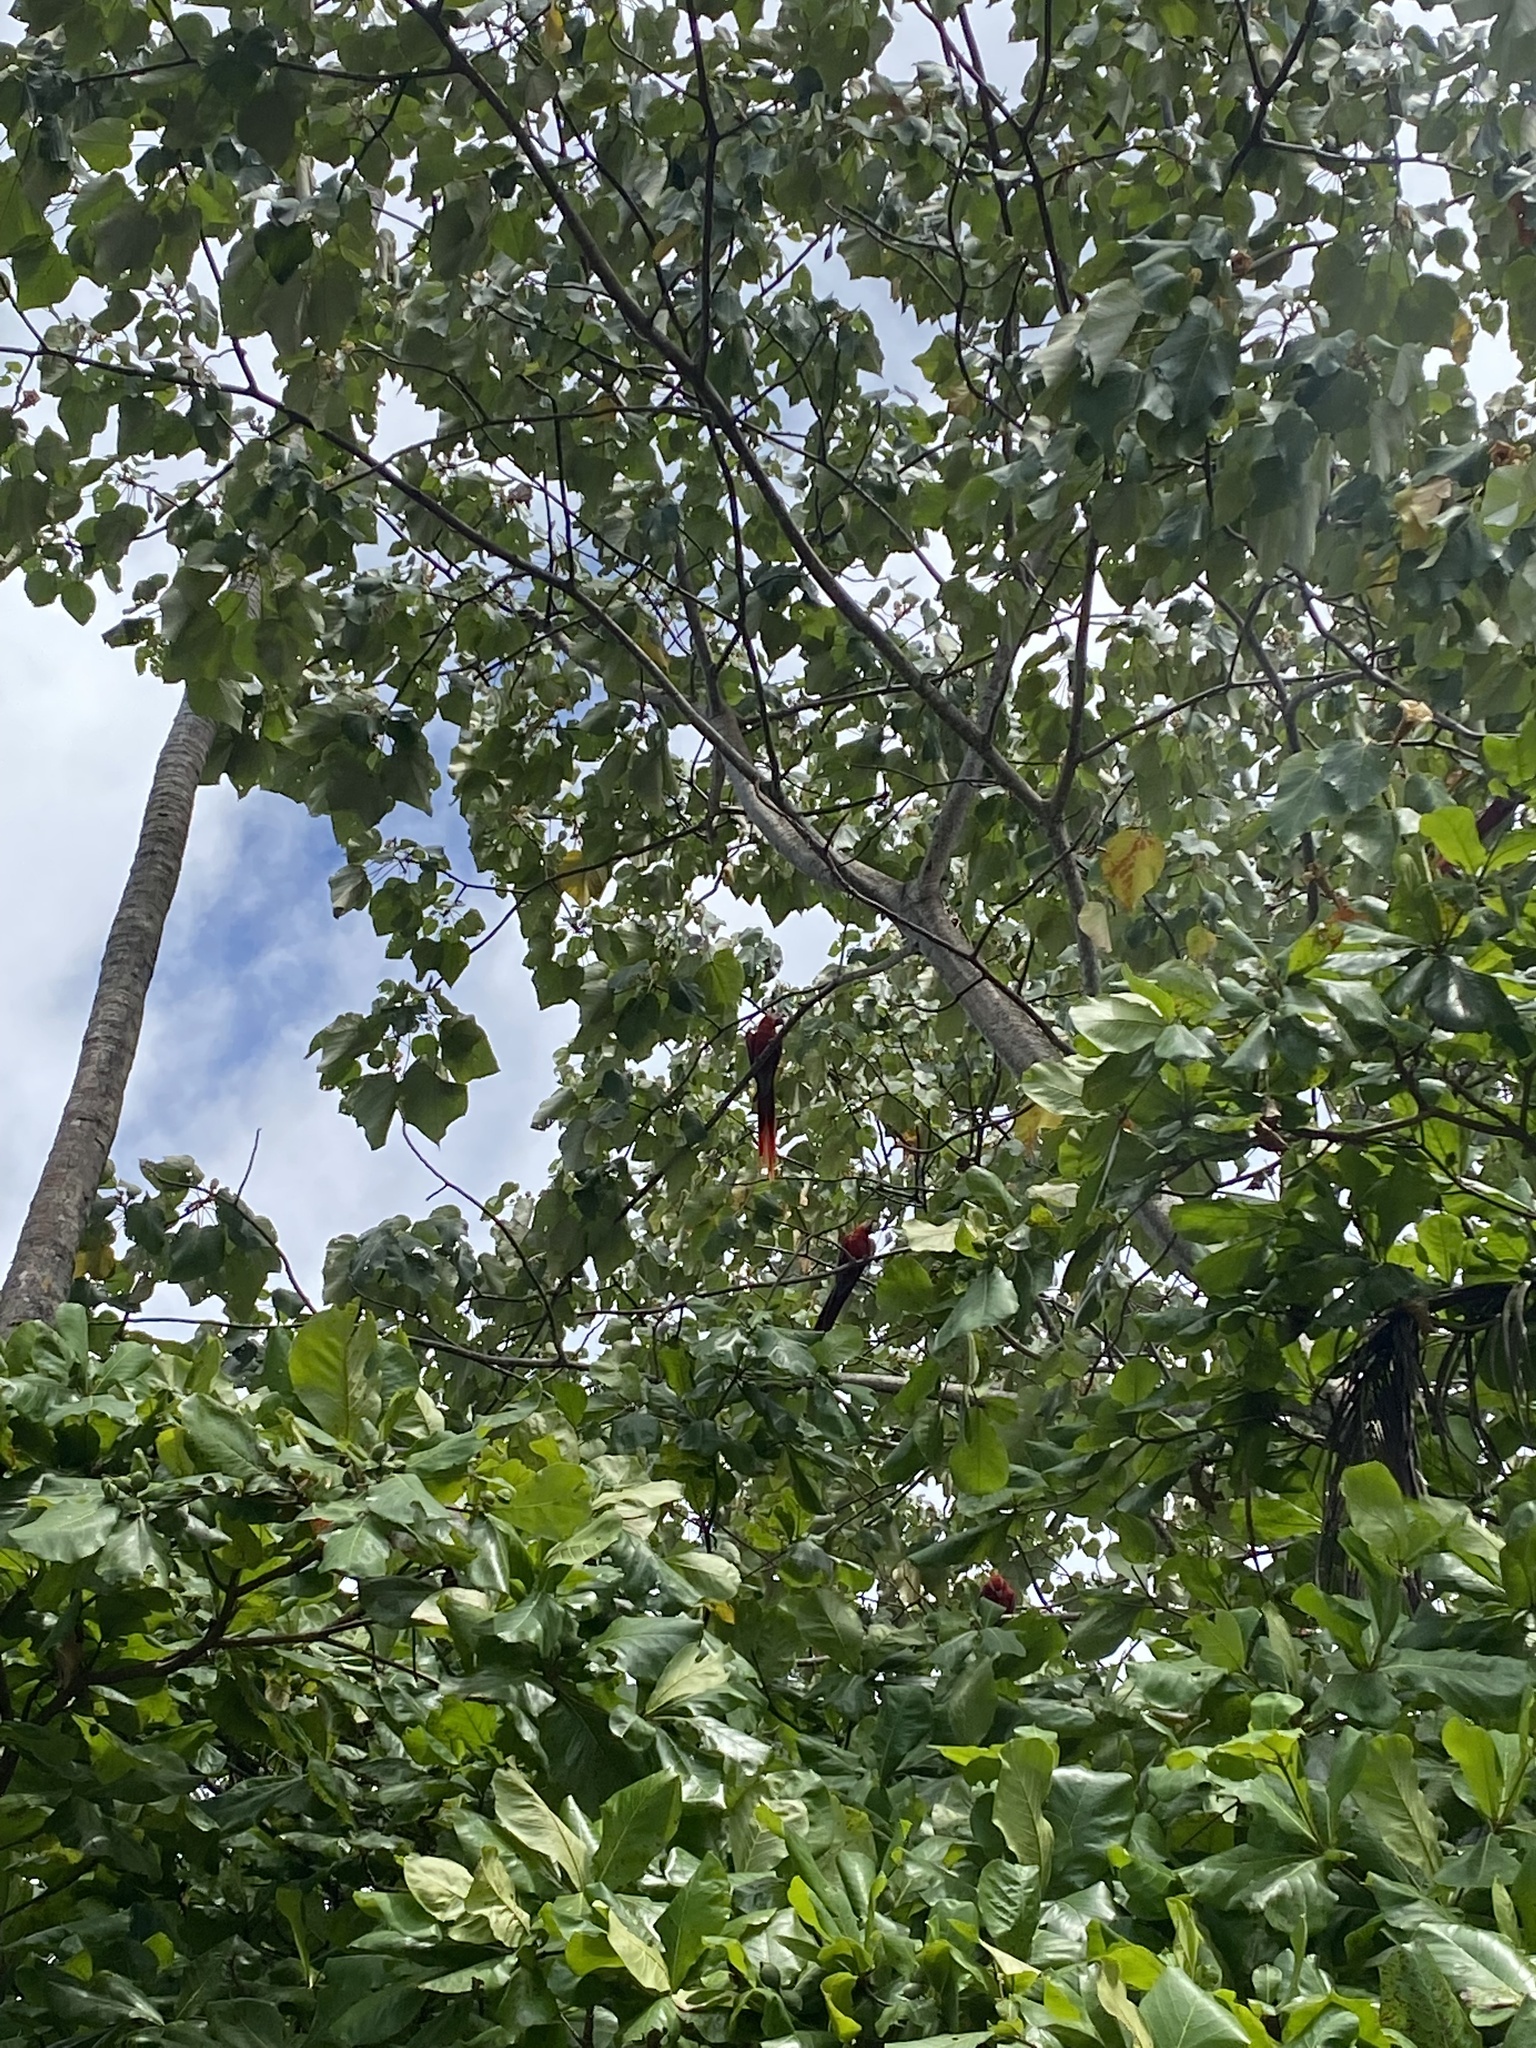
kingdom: Animalia
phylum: Chordata
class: Aves
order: Psittaciformes
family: Psittacidae
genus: Ara
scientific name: Ara macao
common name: Scarlet macaw
